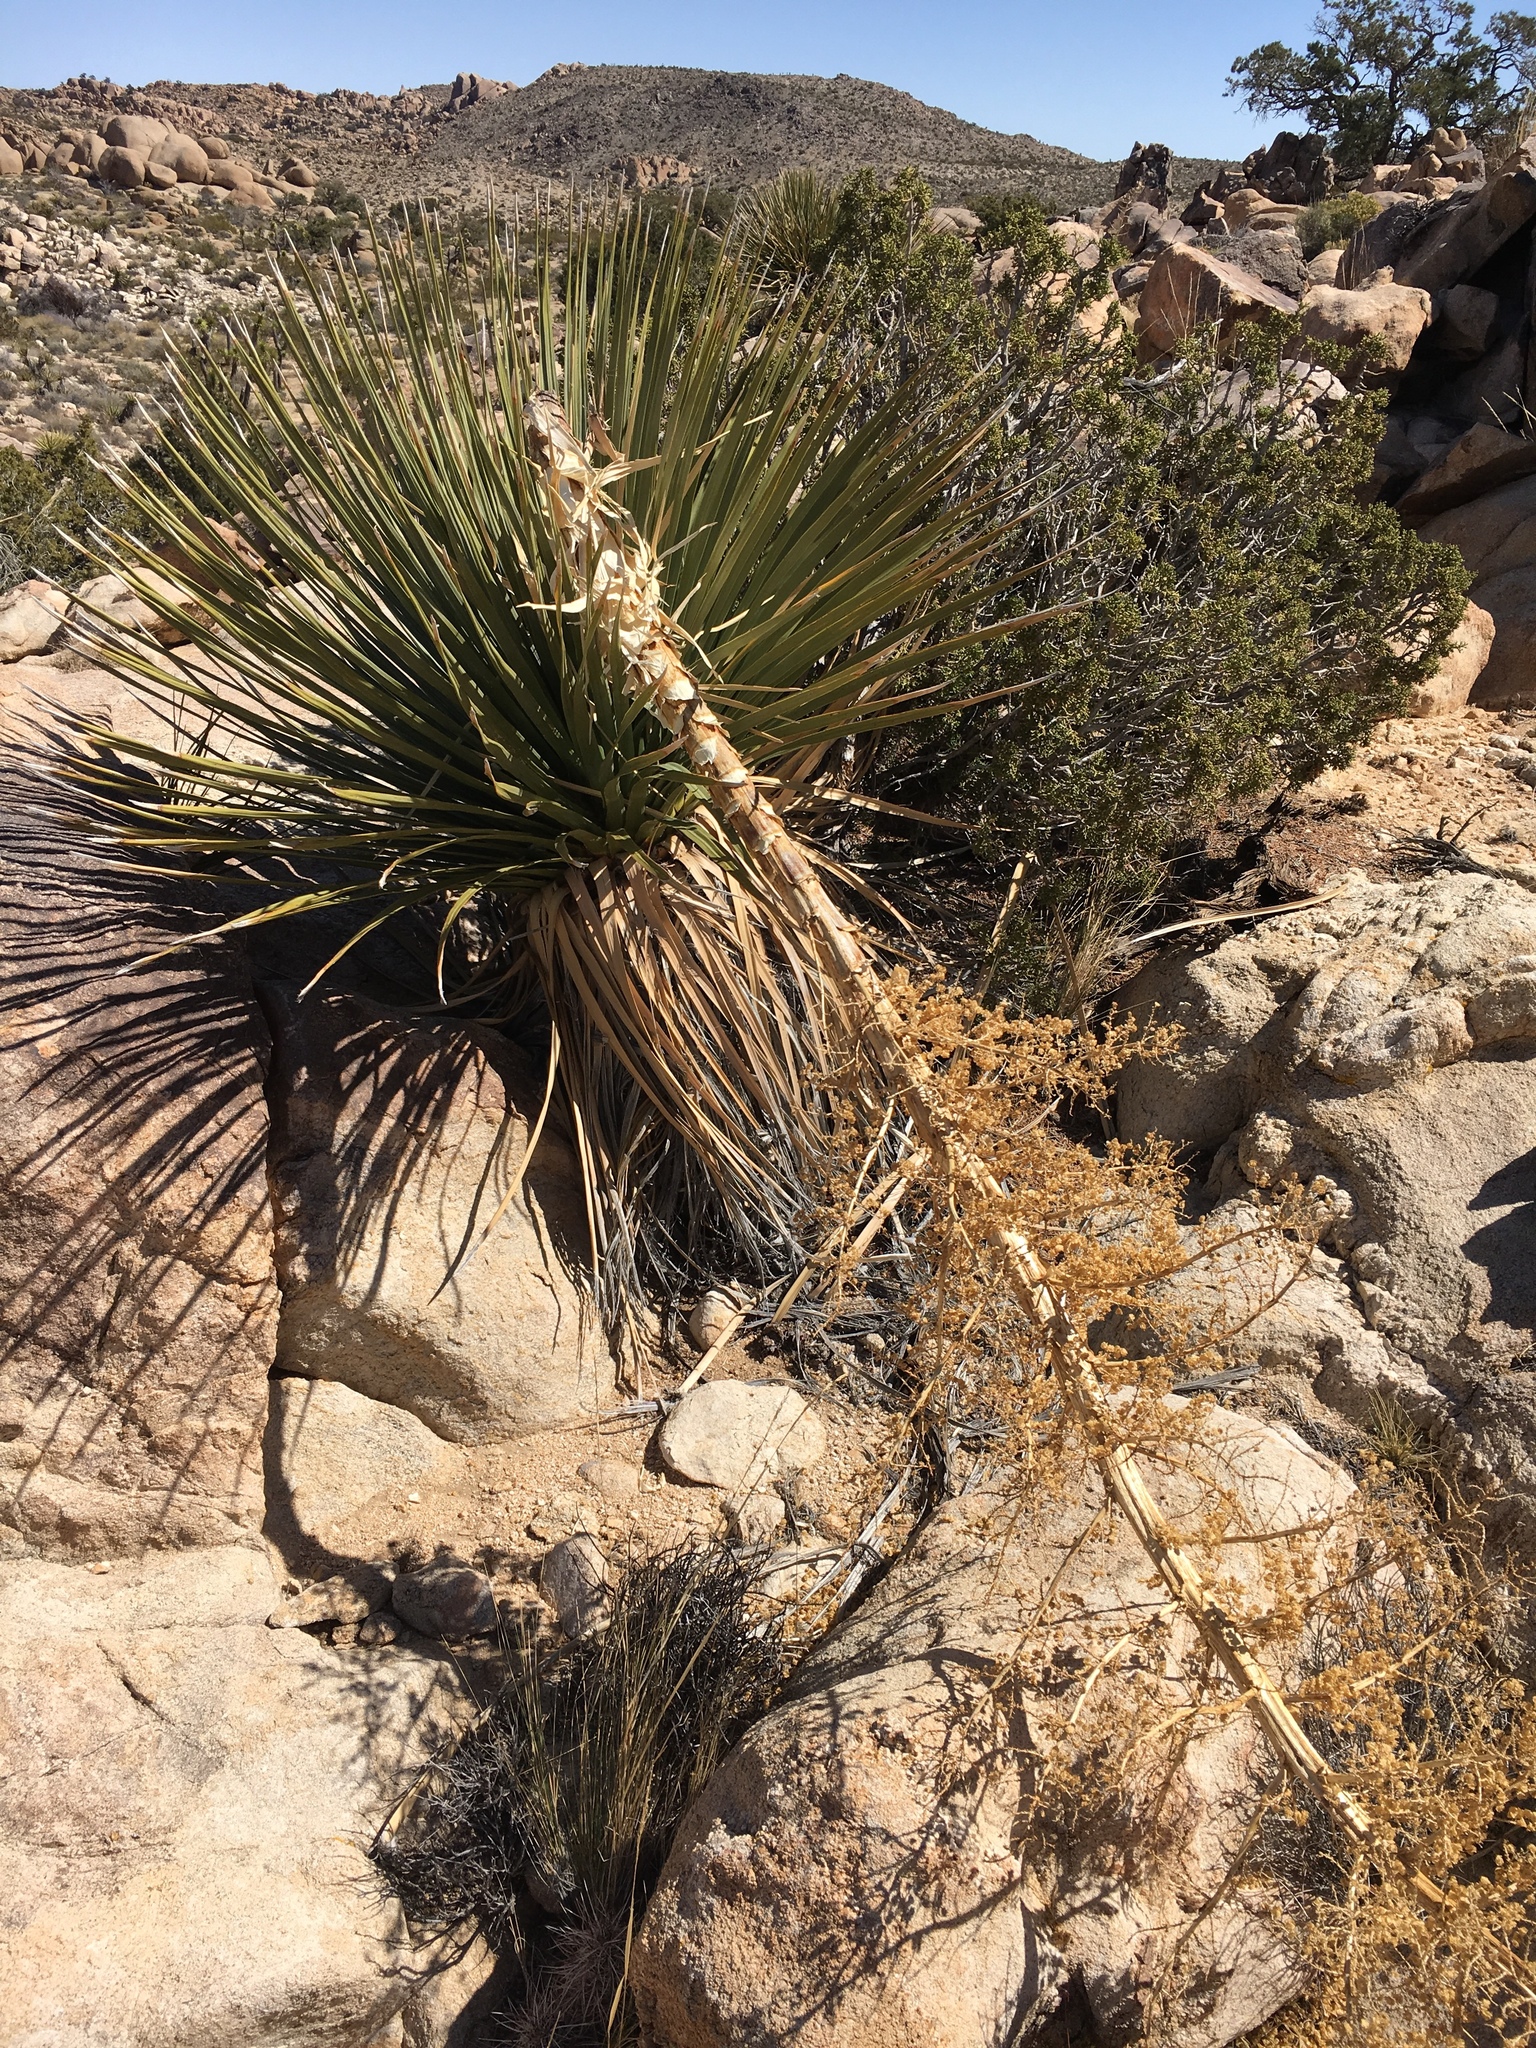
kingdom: Plantae
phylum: Tracheophyta
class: Liliopsida
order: Asparagales
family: Asparagaceae
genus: Nolina
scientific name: Nolina parryi
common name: Parry nolina
